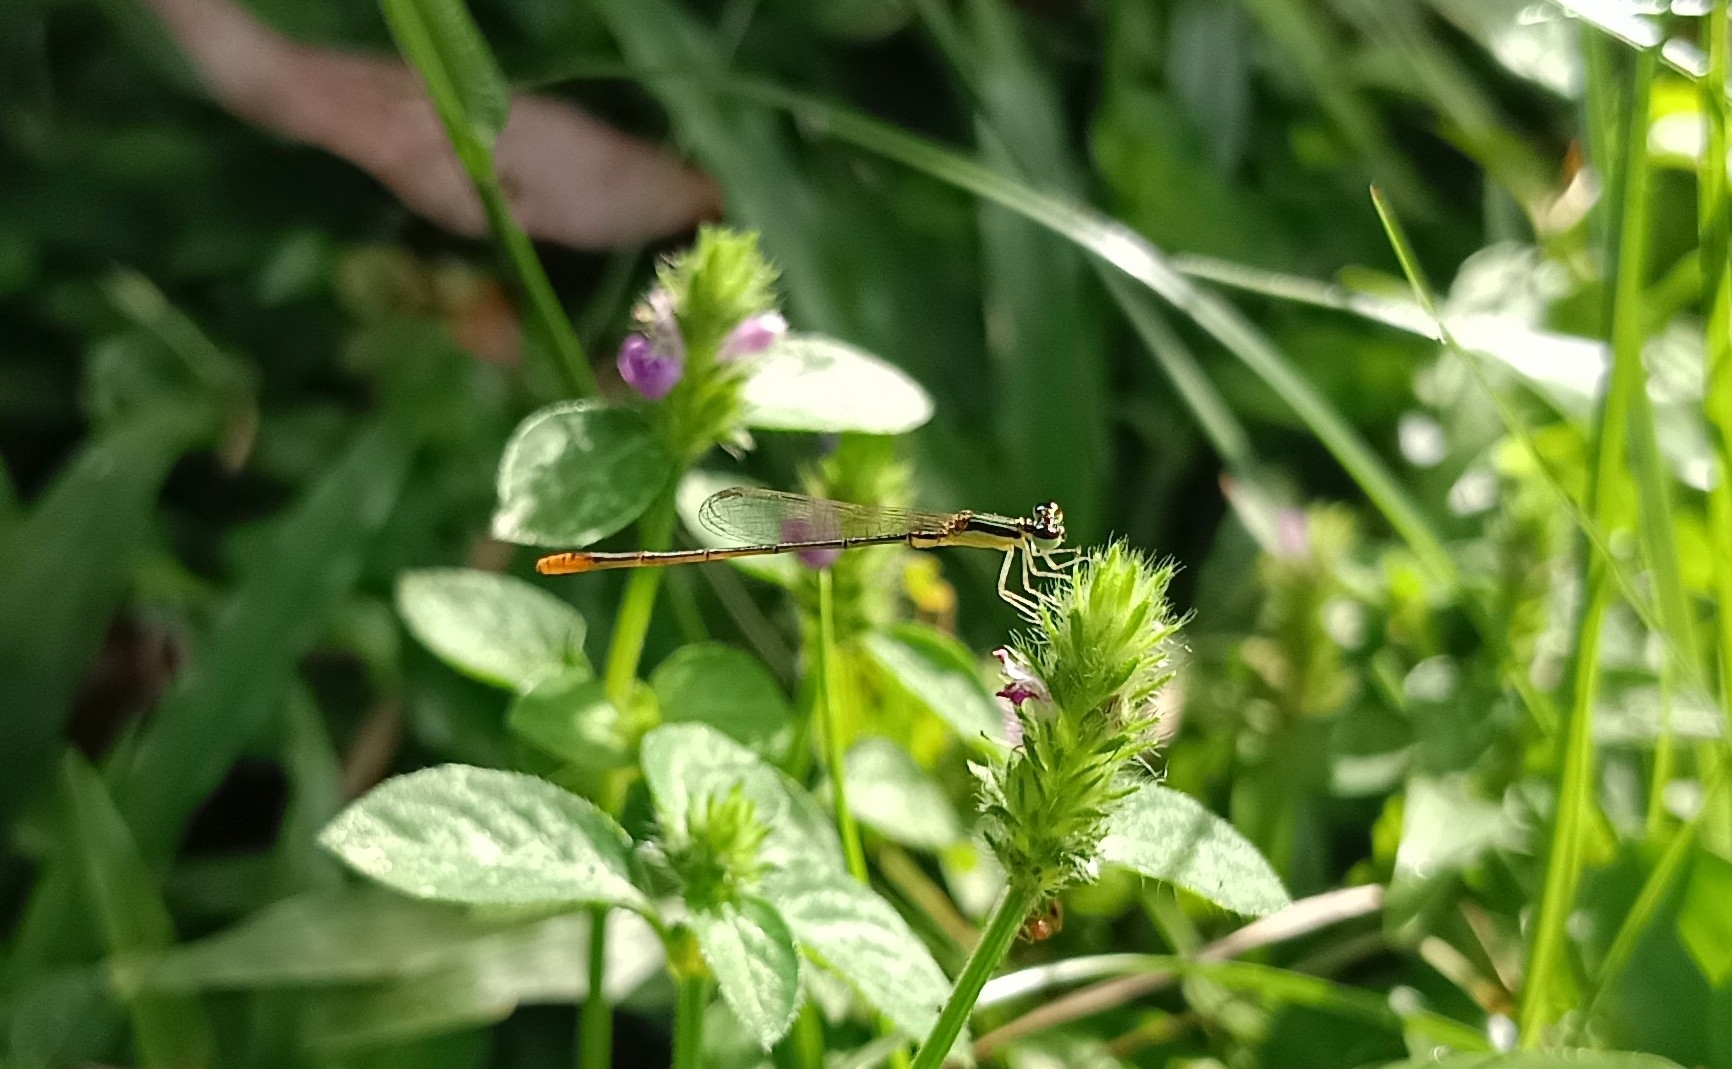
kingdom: Animalia
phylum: Arthropoda
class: Insecta
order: Odonata
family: Coenagrionidae
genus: Agriocnemis
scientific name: Agriocnemis pygmaea
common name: Pygmy wisp
